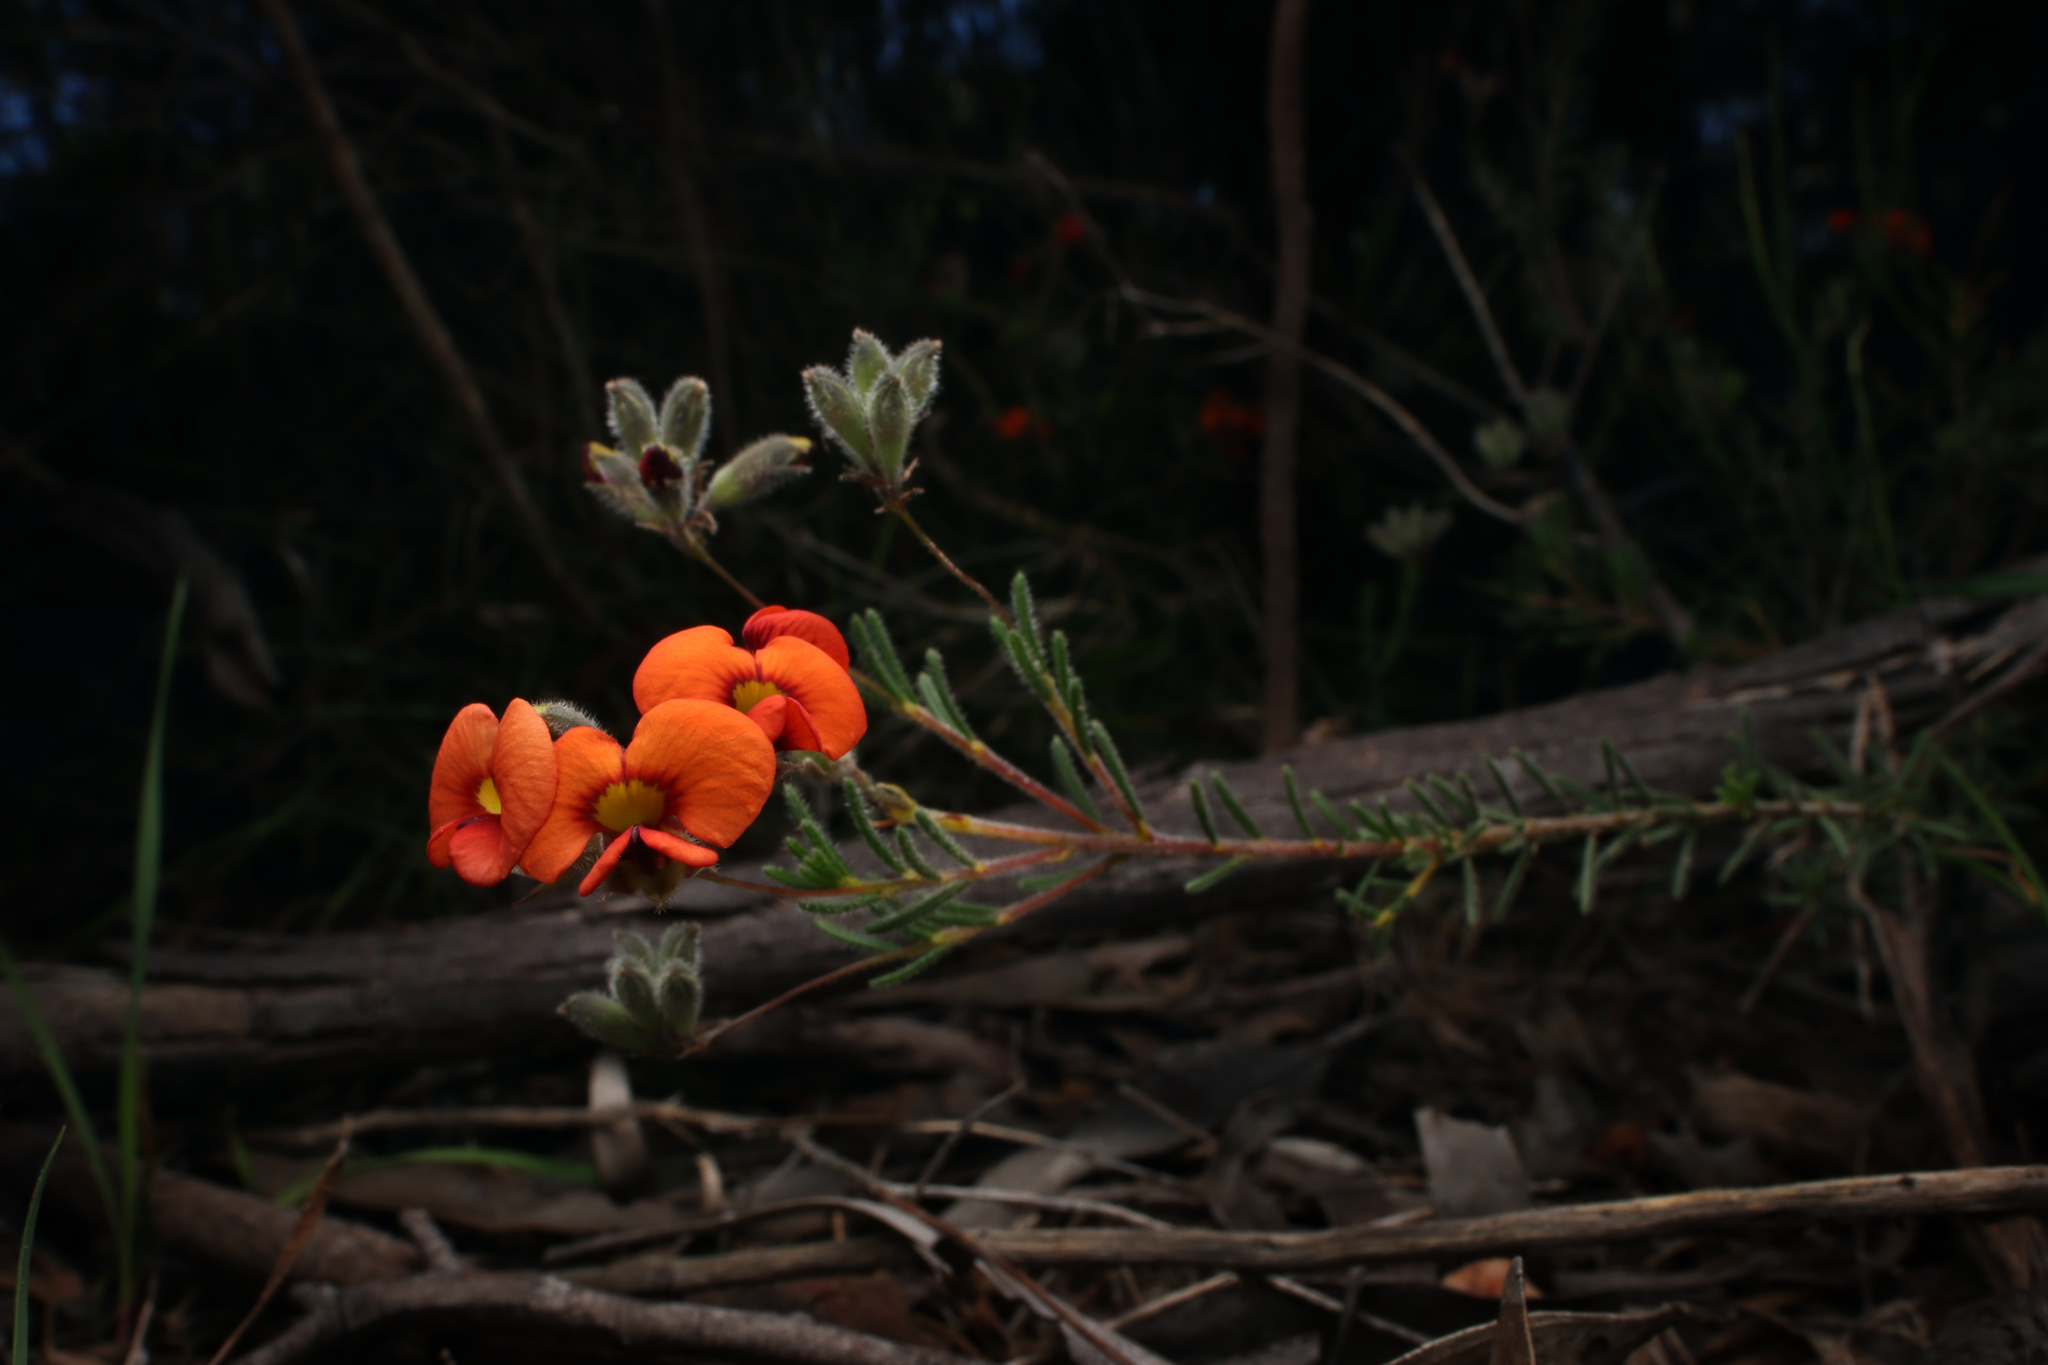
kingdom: Plantae
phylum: Tracheophyta
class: Magnoliopsida
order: Fabales
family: Fabaceae
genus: Dillwynia
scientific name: Dillwynia hispida
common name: Red parrot-pea
